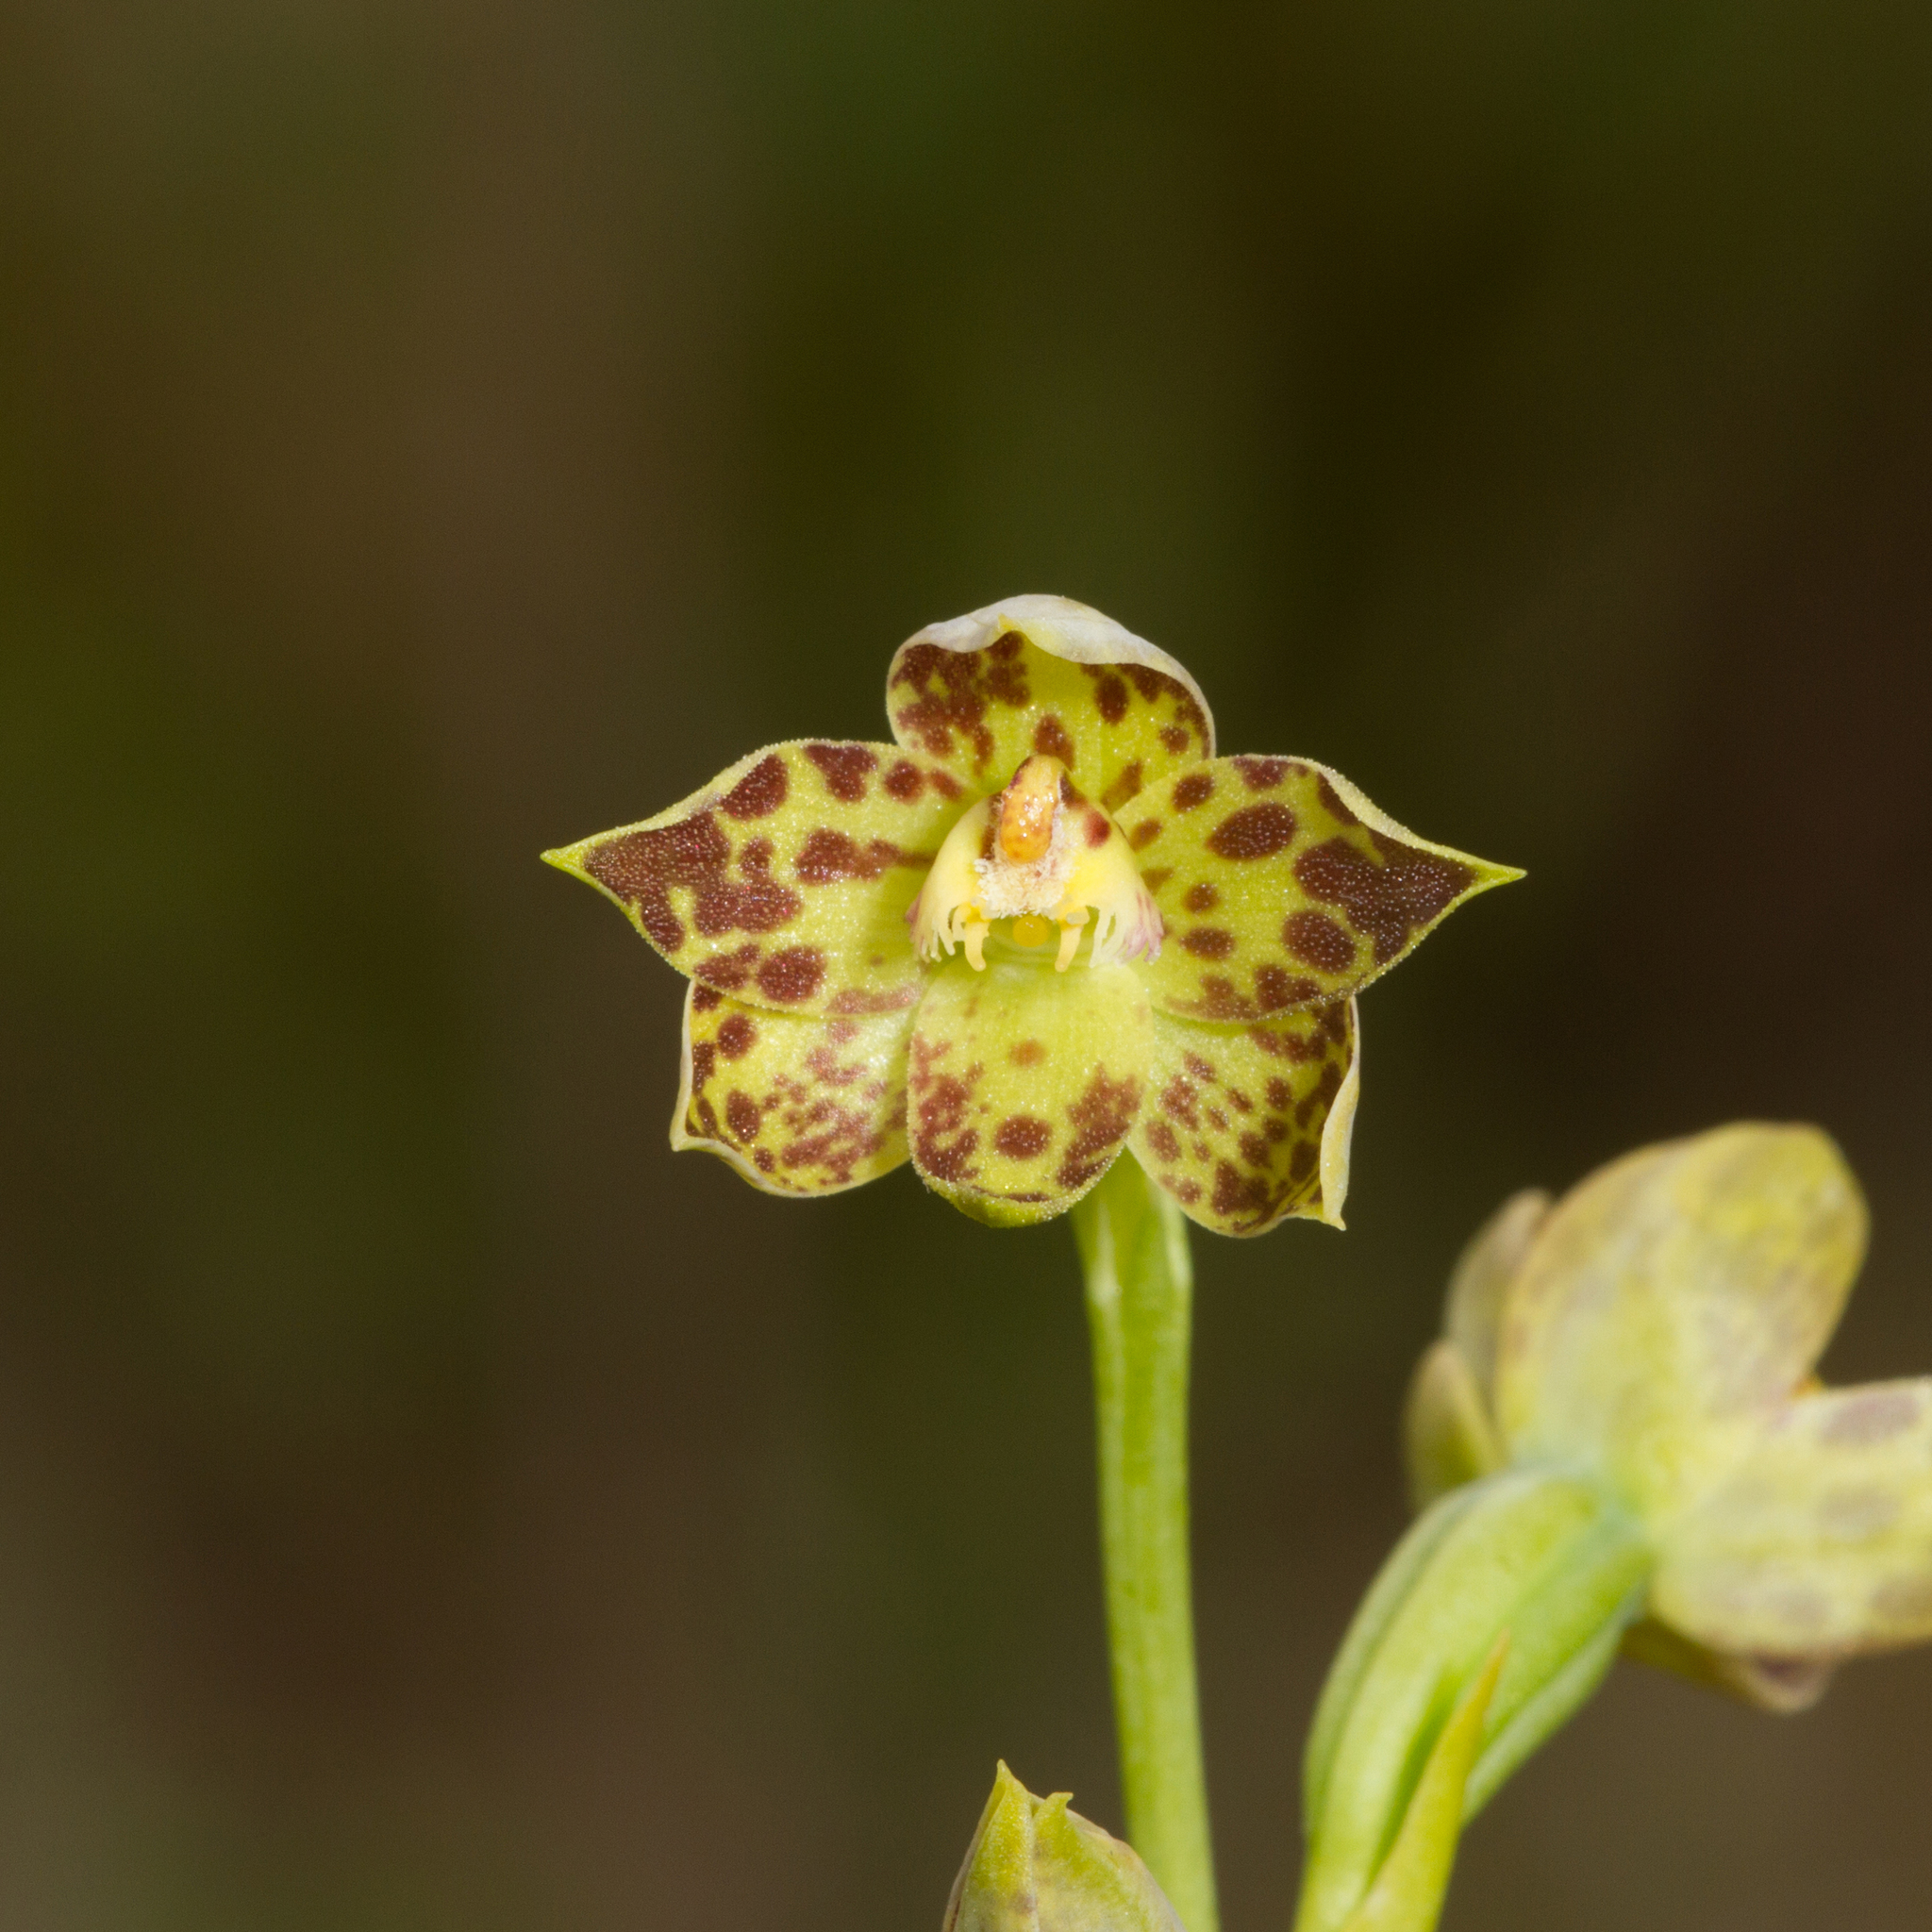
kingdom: Plantae
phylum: Tracheophyta
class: Liliopsida
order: Asparagales
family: Orchidaceae
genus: Thelymitra
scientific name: Thelymitra benthamiana
